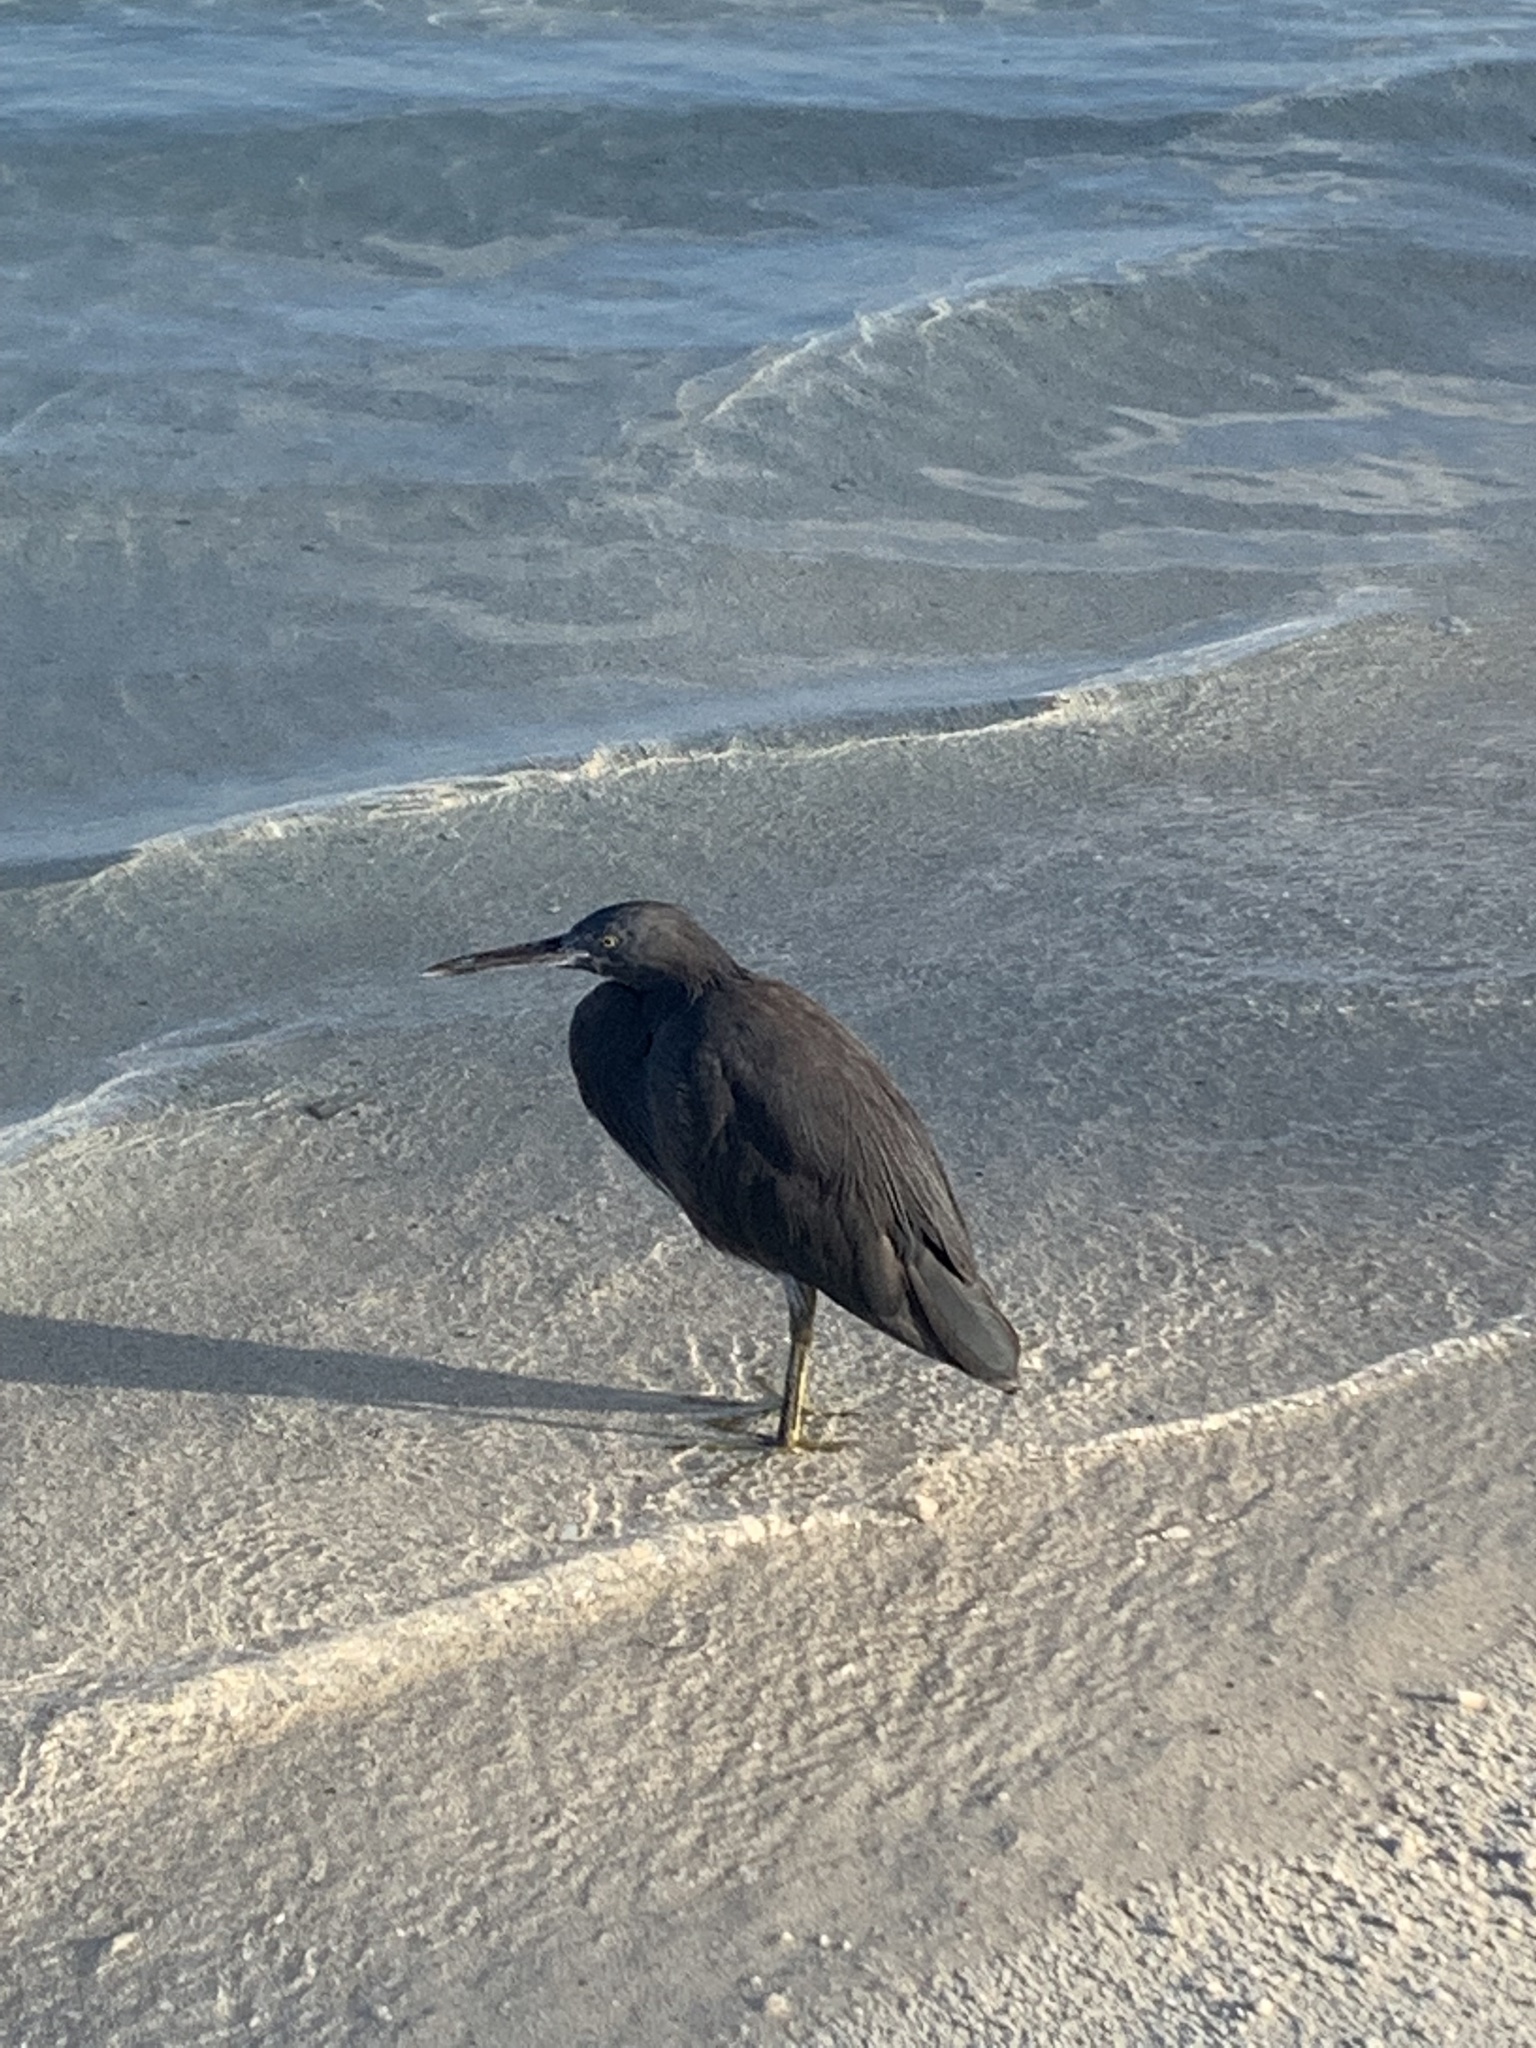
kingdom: Animalia
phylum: Chordata
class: Aves
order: Pelecaniformes
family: Ardeidae
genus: Egretta
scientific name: Egretta sacra
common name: Pacific reef heron
